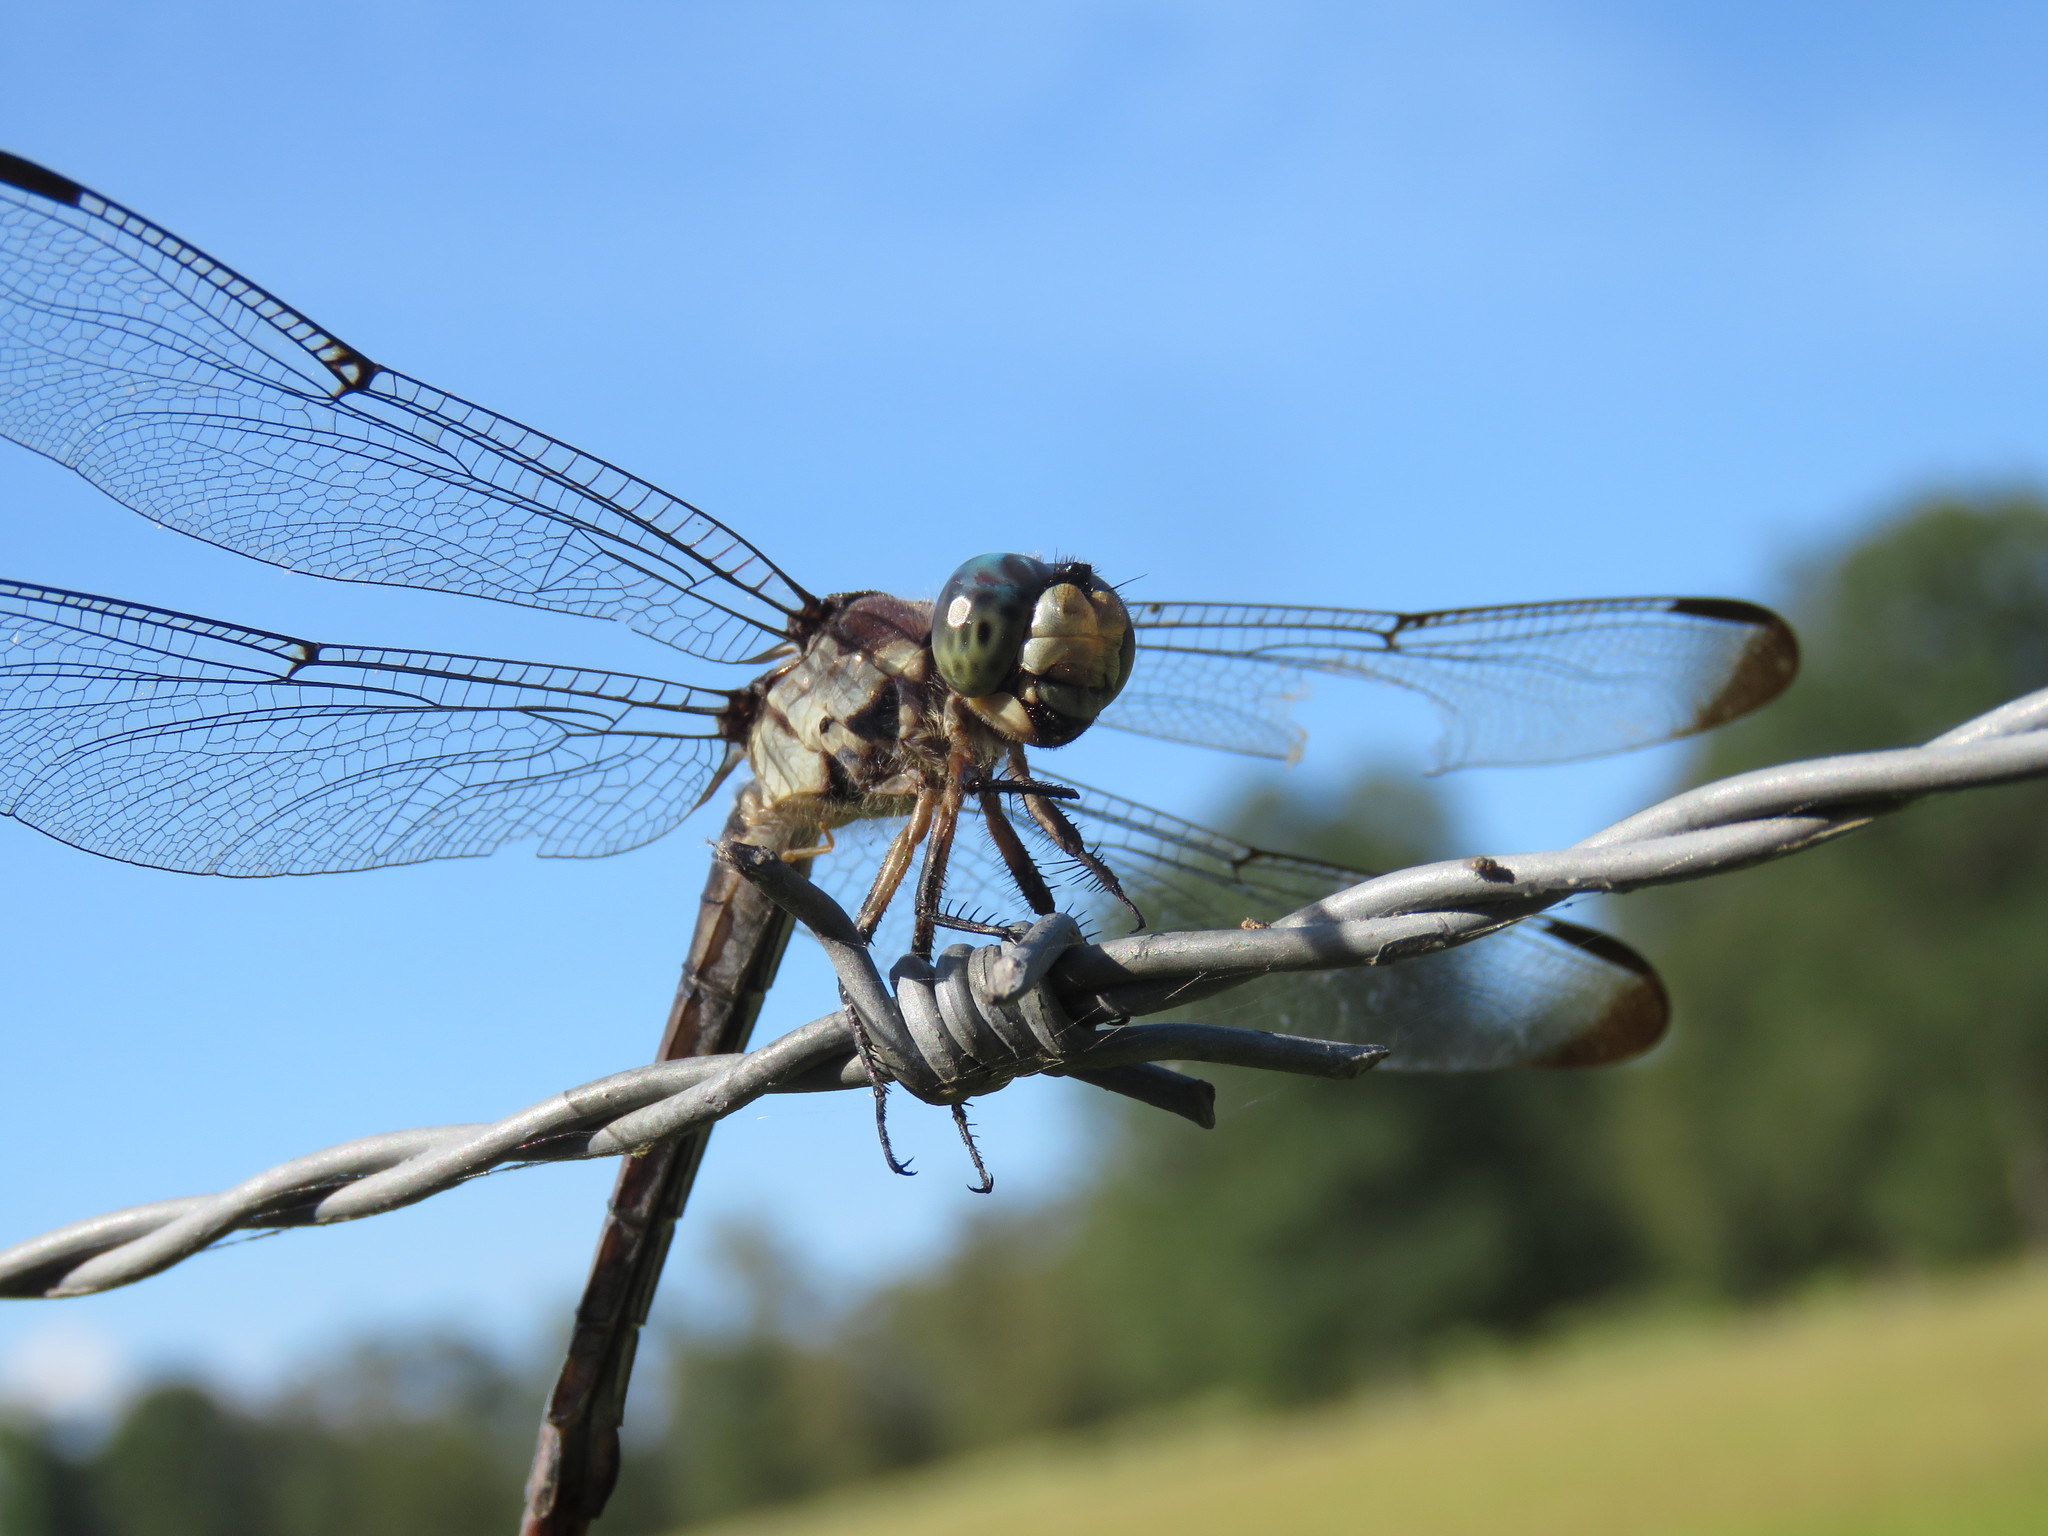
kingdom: Animalia
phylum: Arthropoda
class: Insecta
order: Odonata
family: Libellulidae
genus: Libellula
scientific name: Libellula vibrans
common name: Great blue skimmer
